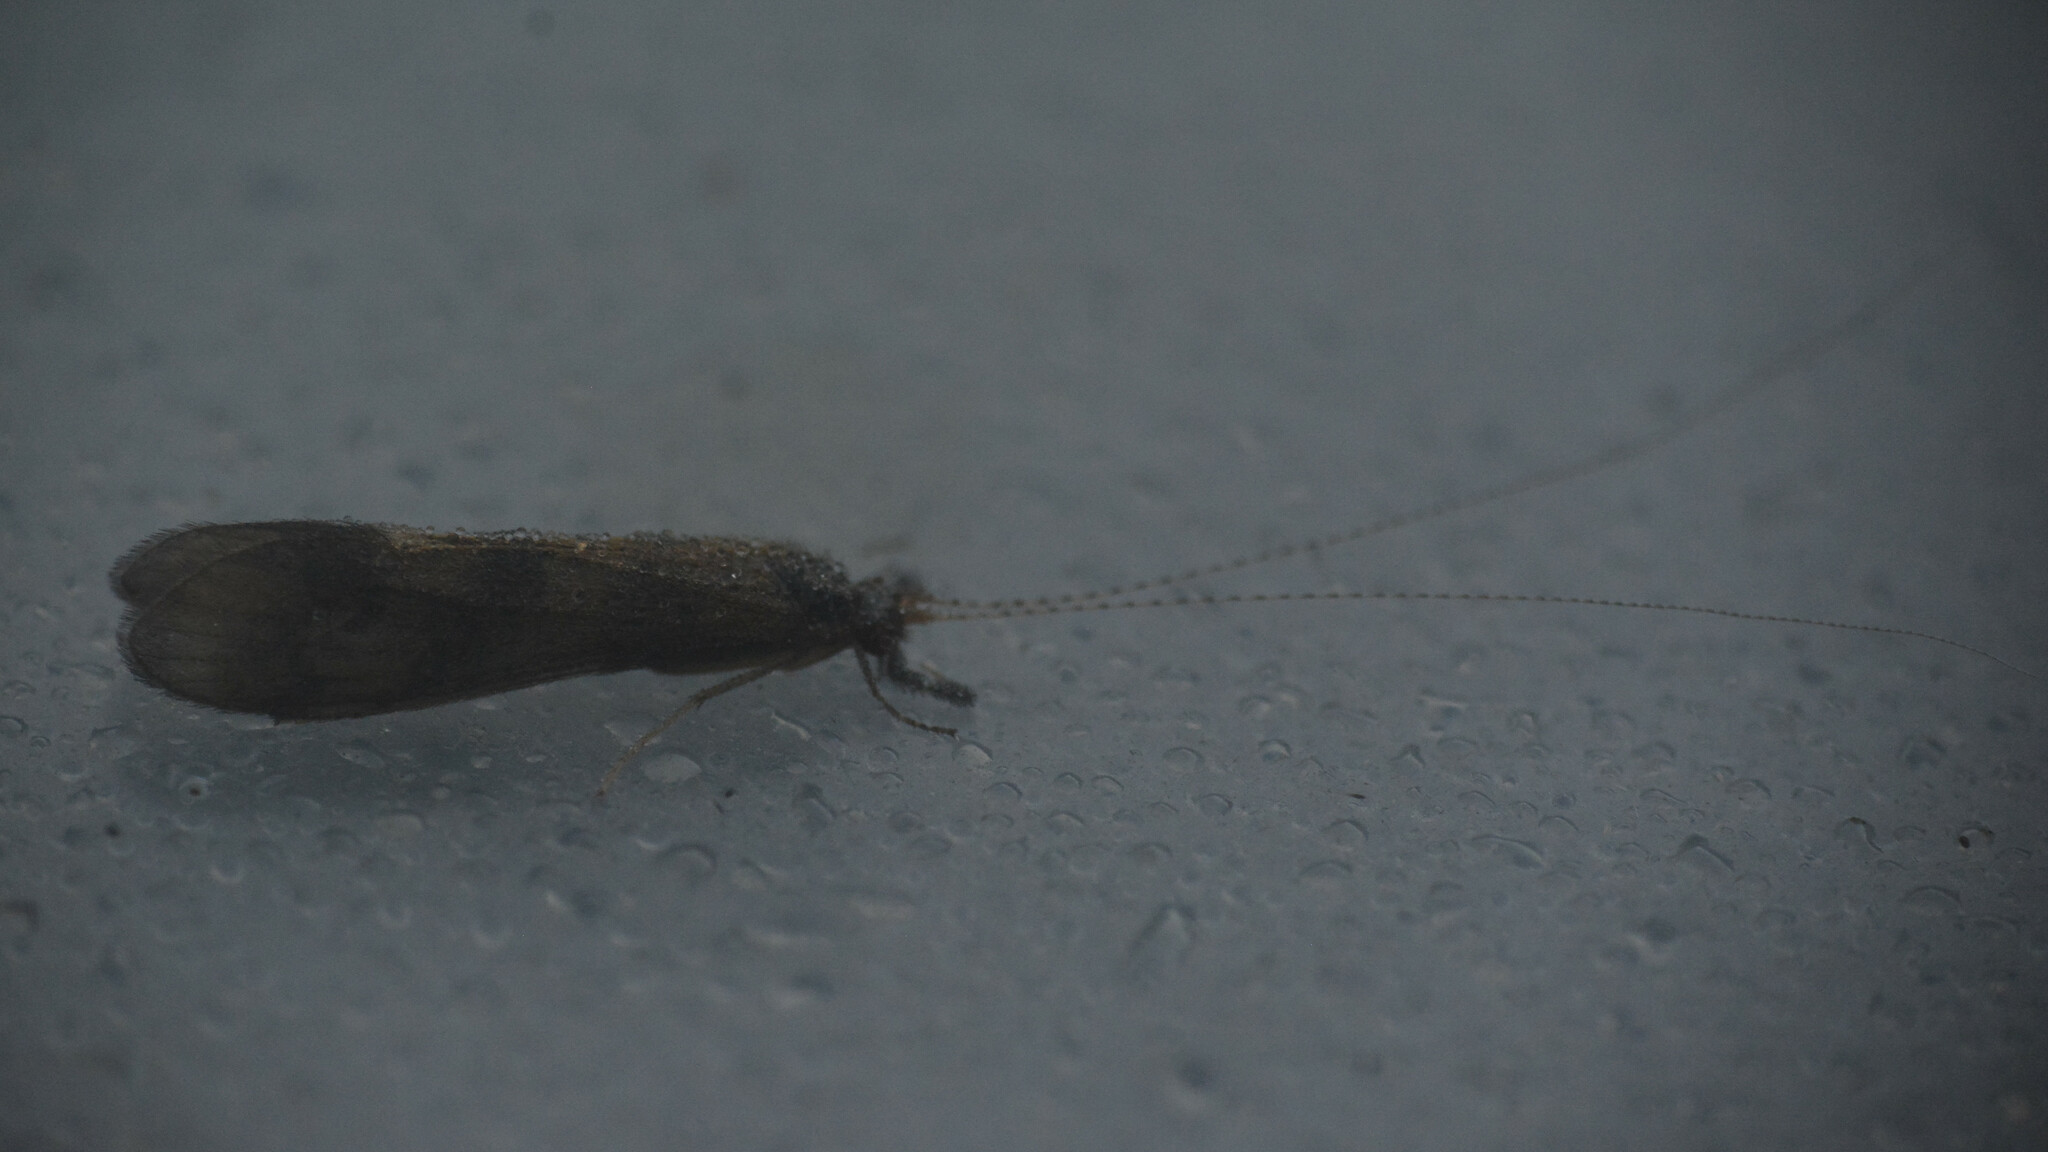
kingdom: Animalia
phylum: Arthropoda
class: Insecta
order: Trichoptera
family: Leptoceridae
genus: Mystacides
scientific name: Mystacides longicornis
